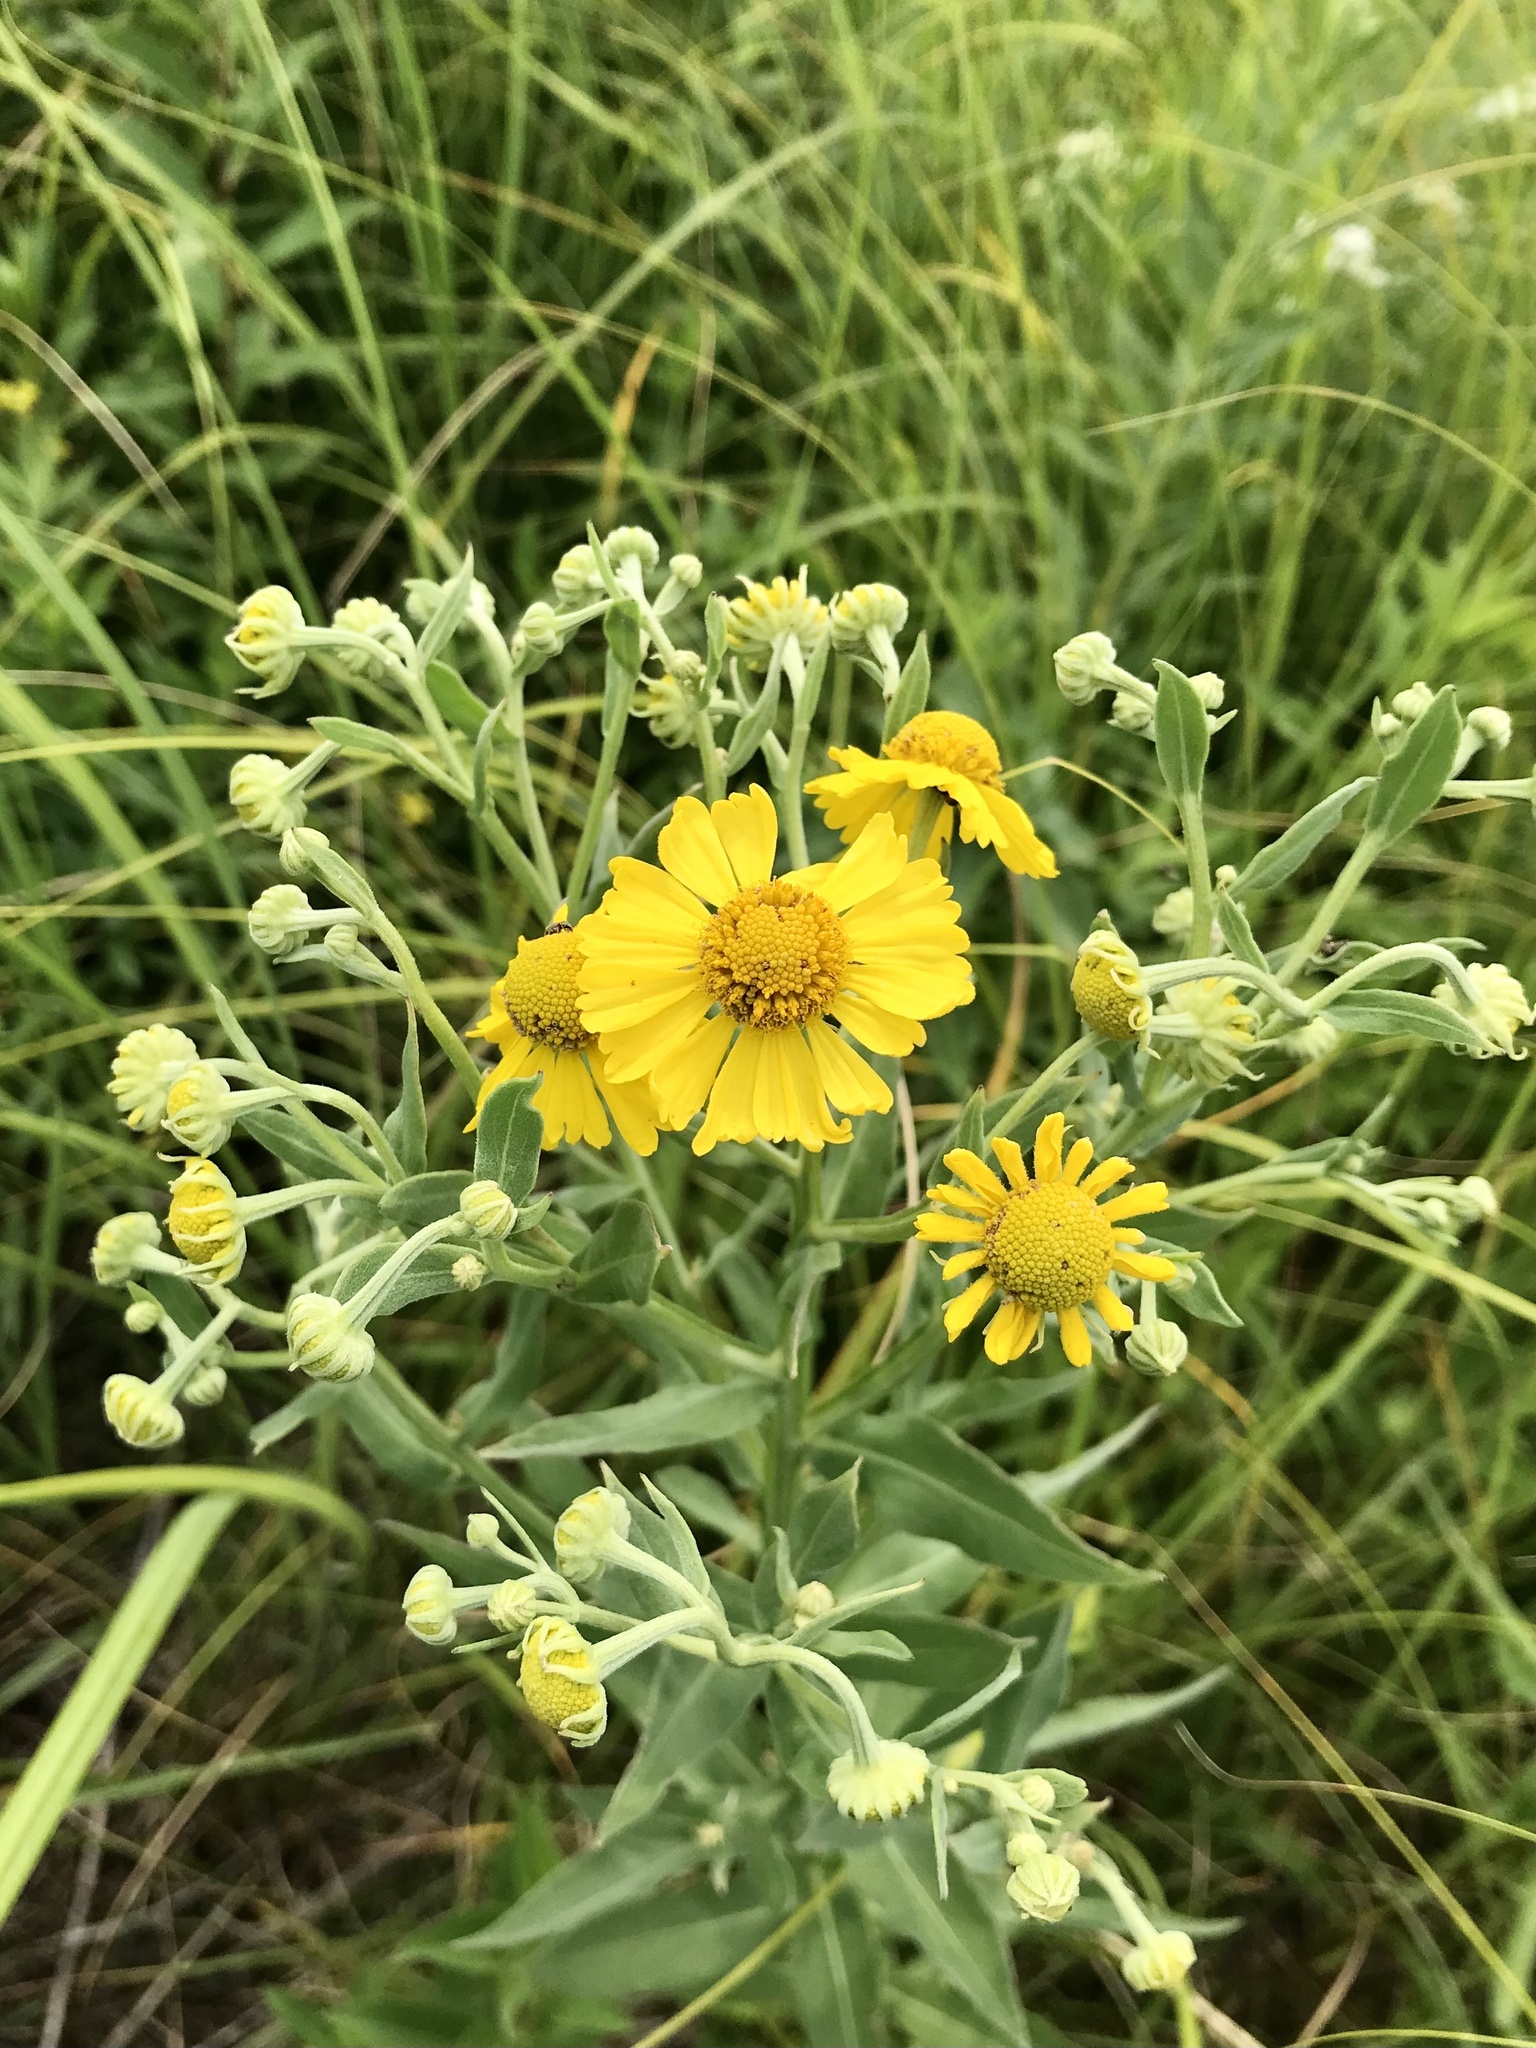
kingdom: Plantae
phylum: Tracheophyta
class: Magnoliopsida
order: Asterales
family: Asteraceae
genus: Helenium
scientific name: Helenium autumnale
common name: Sneezeweed
